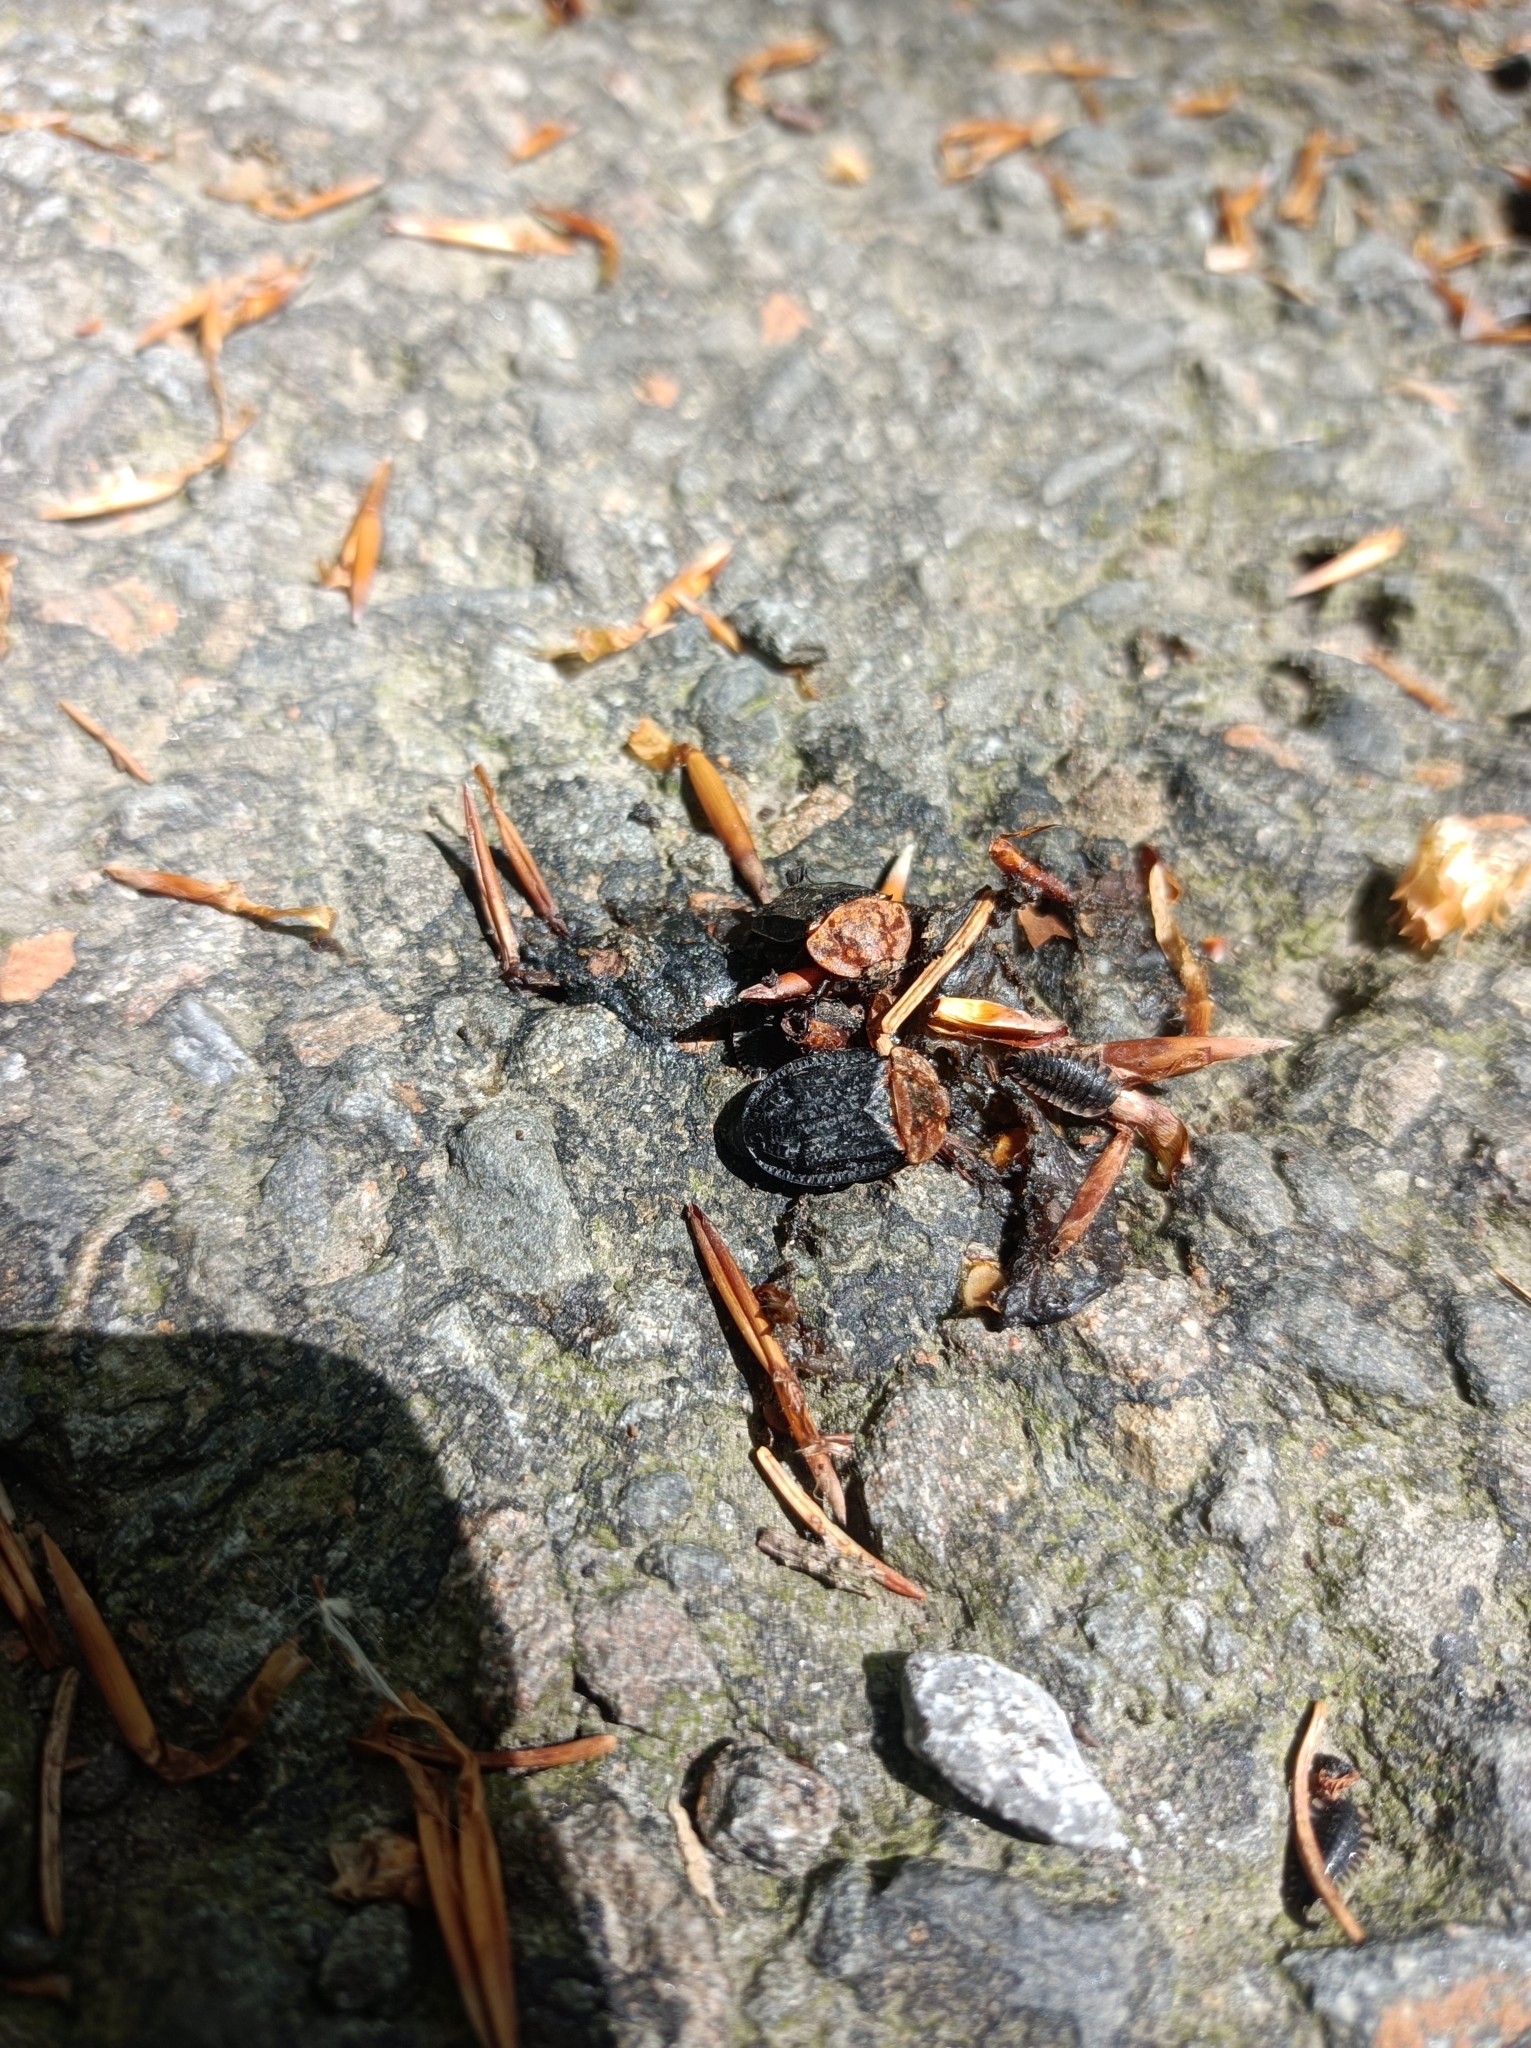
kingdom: Animalia
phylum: Arthropoda
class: Insecta
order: Coleoptera
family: Staphylinidae
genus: Oiceoptoma
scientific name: Oiceoptoma thoracicum
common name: Red-breasted carrion beetle
